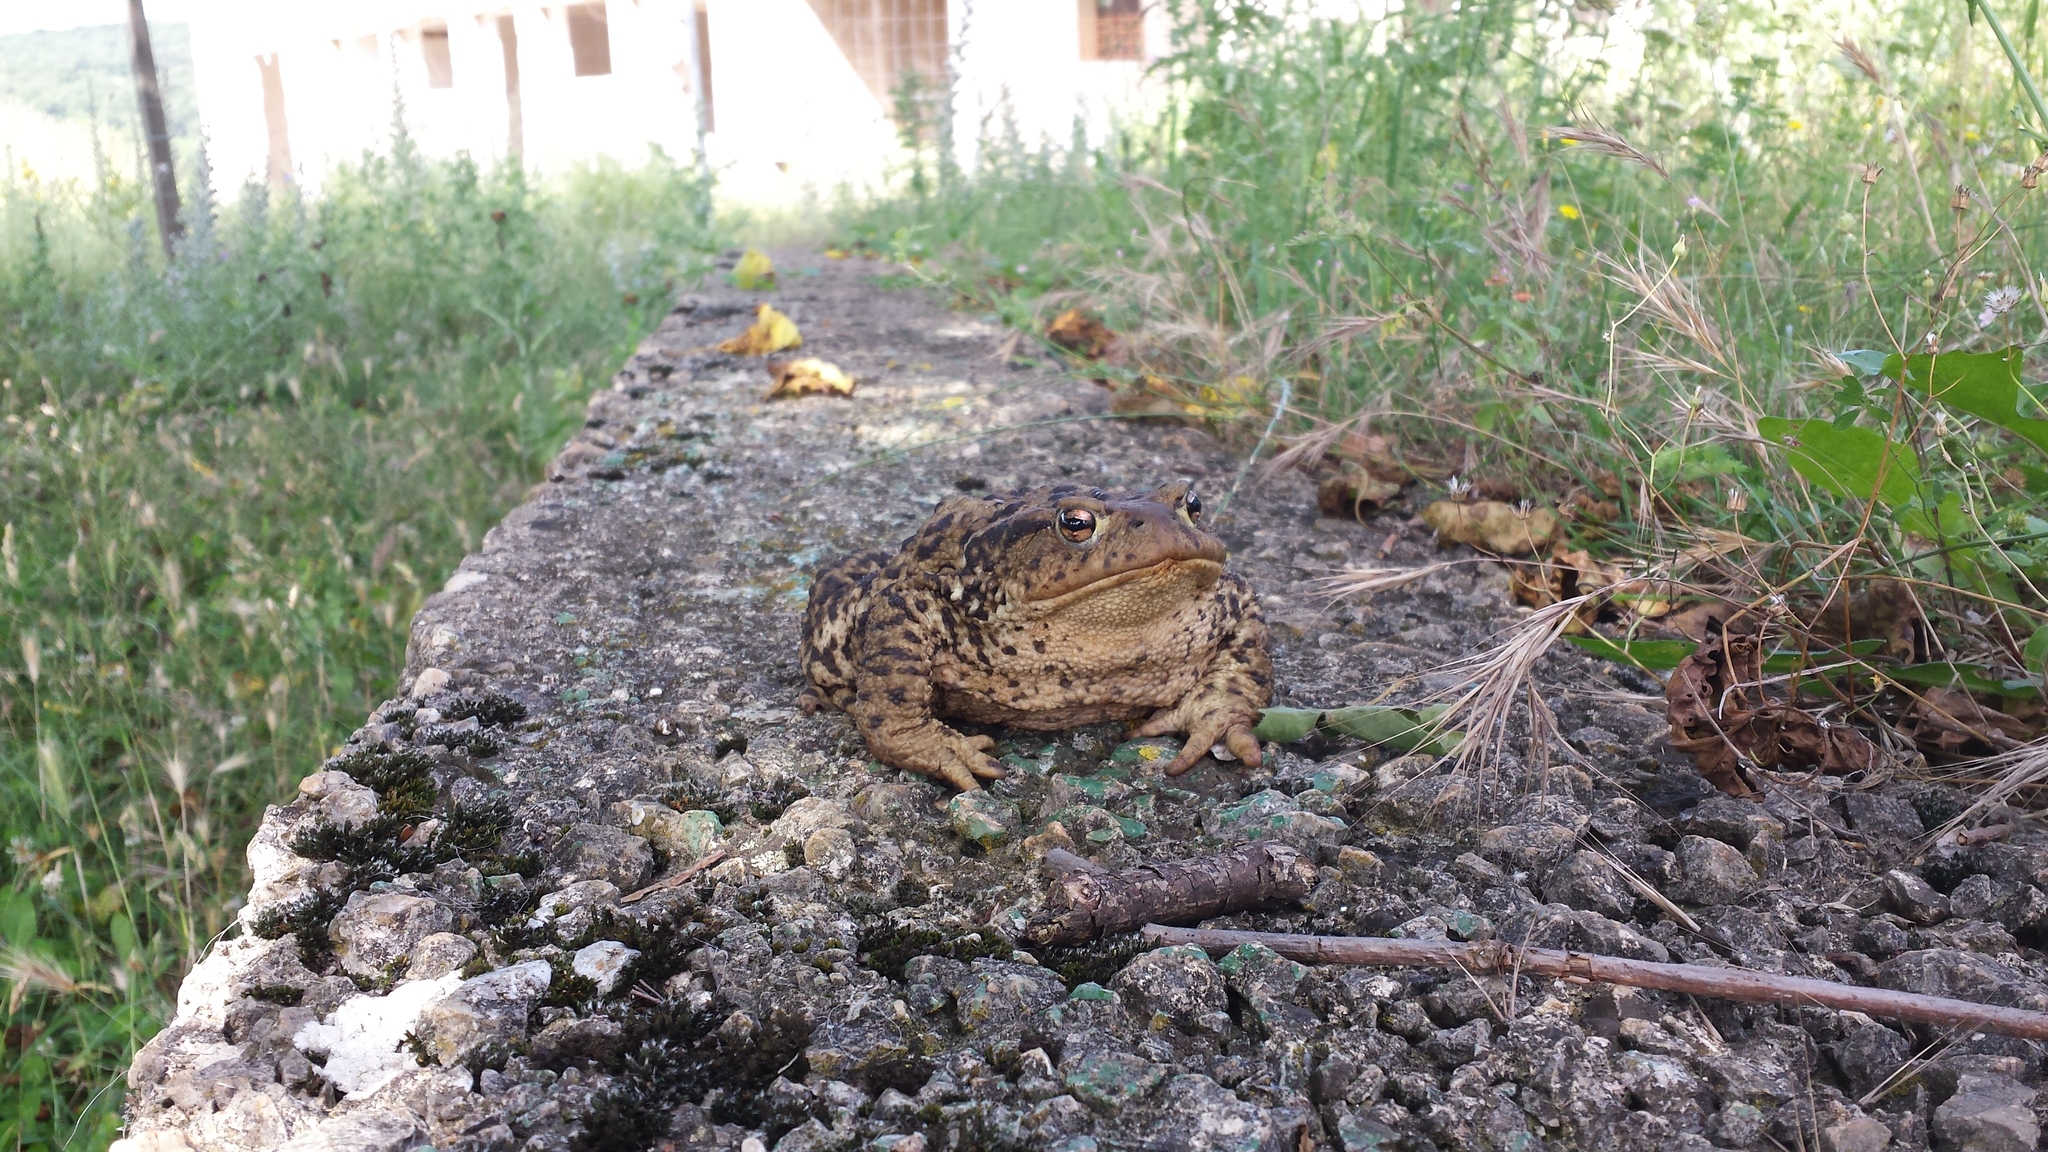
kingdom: Animalia
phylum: Chordata
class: Amphibia
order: Anura
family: Bufonidae
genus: Bufo
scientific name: Bufo bufo
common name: Common toad
